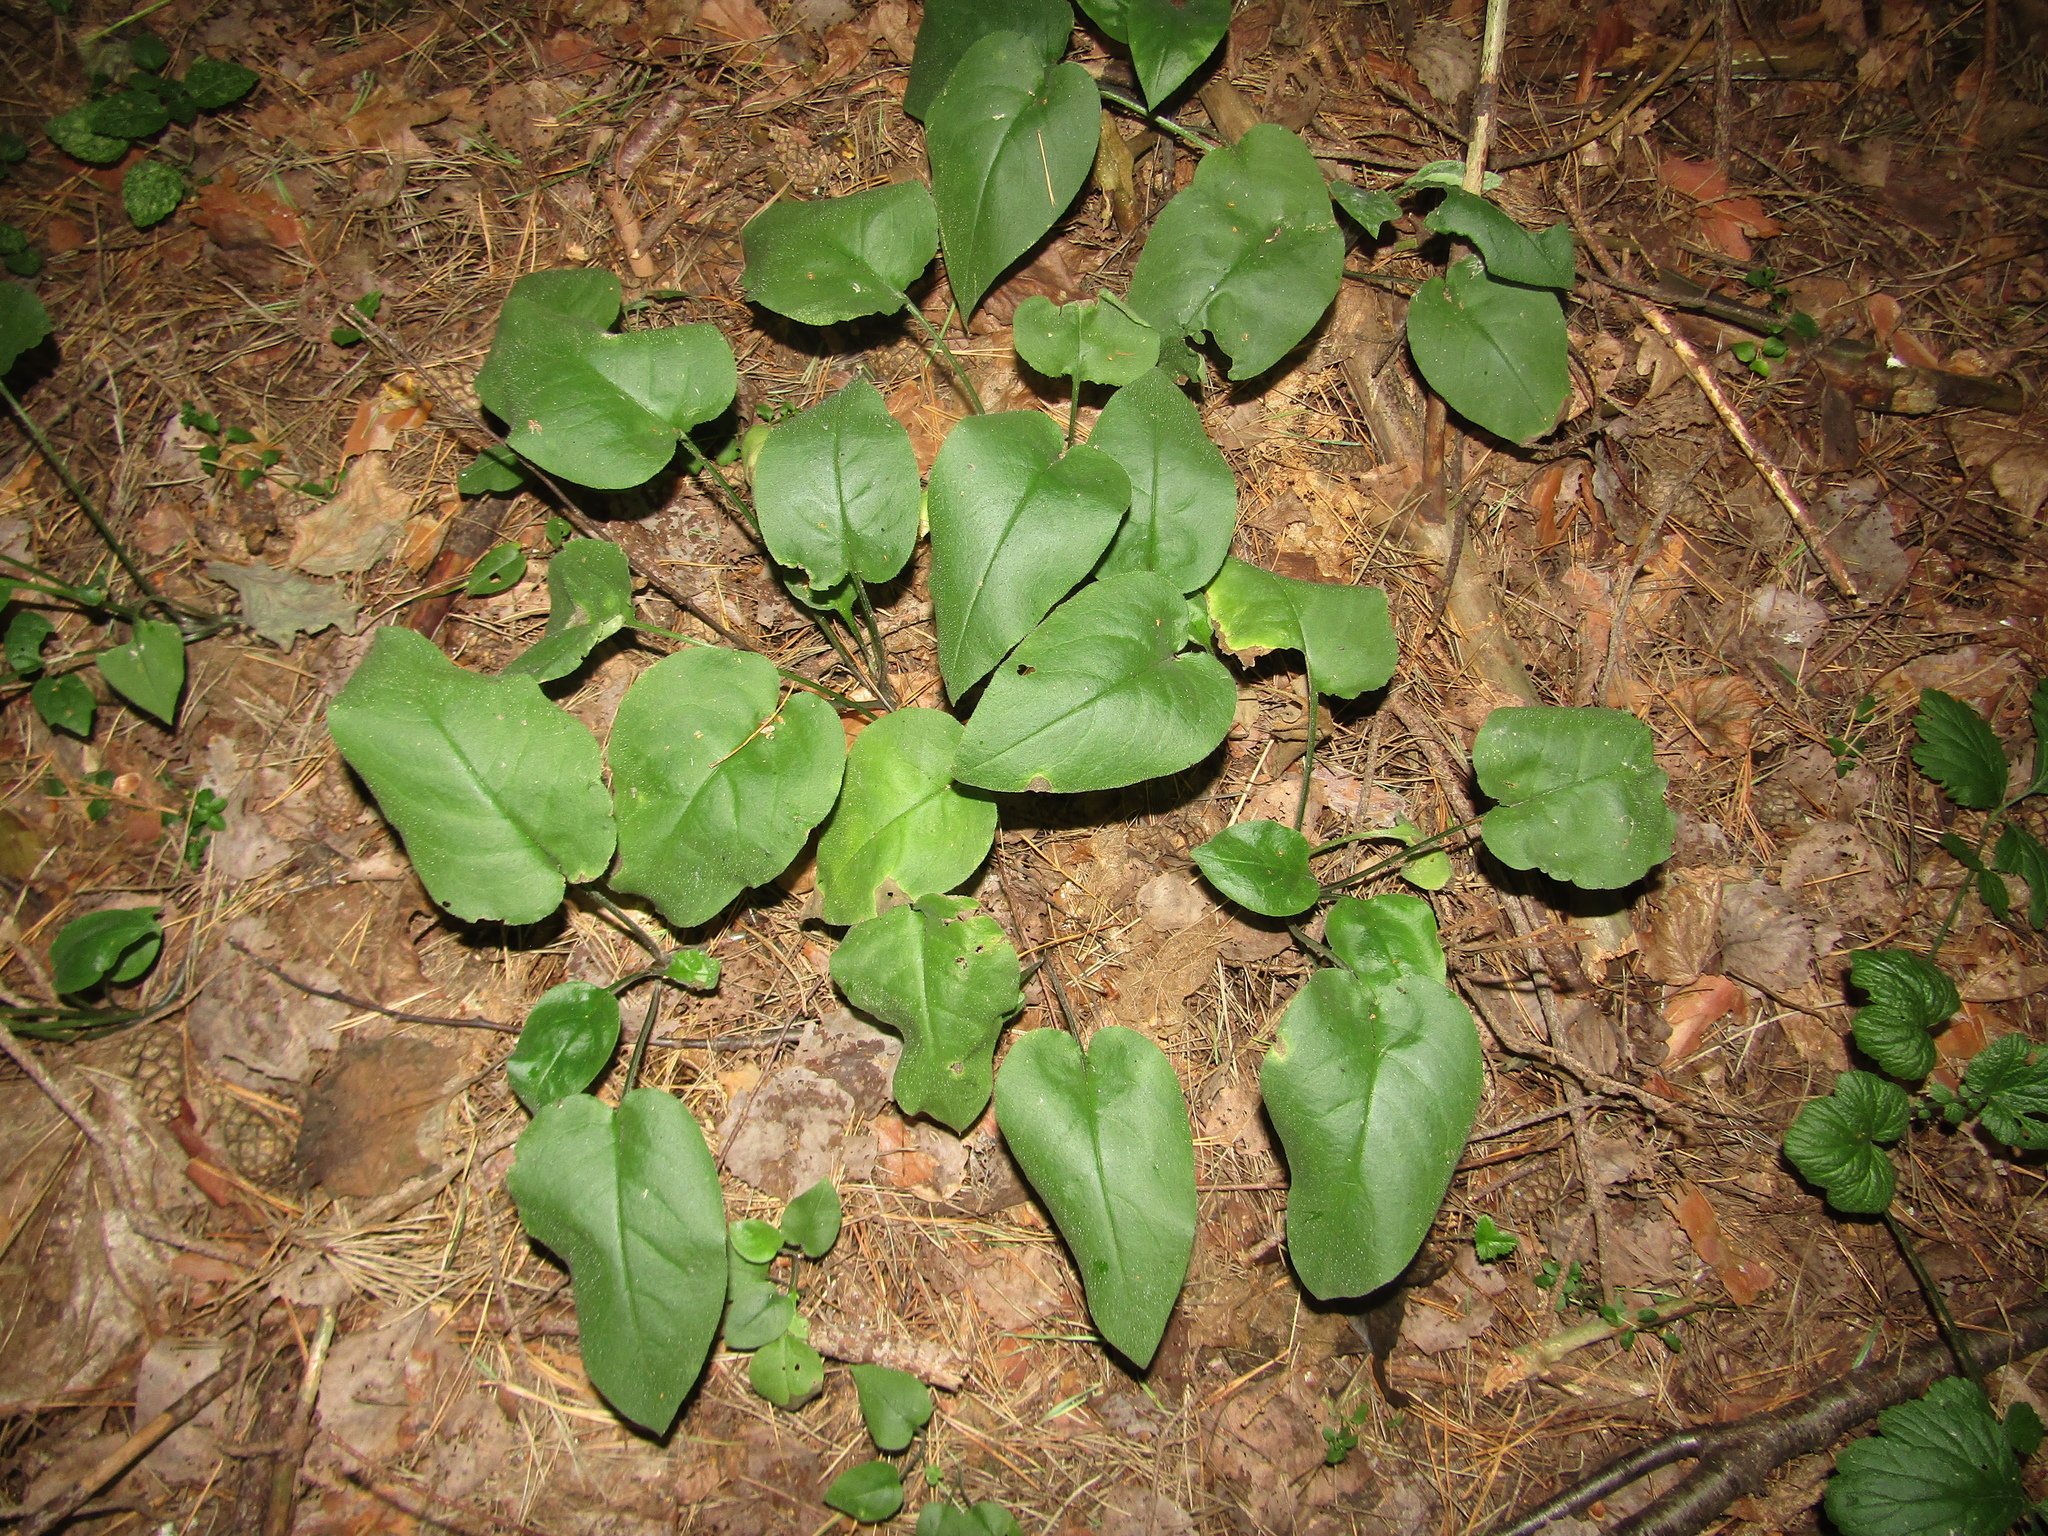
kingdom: Plantae
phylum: Tracheophyta
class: Magnoliopsida
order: Boraginales
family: Boraginaceae
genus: Pulmonaria
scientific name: Pulmonaria obscura
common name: Suffolk lungwort
